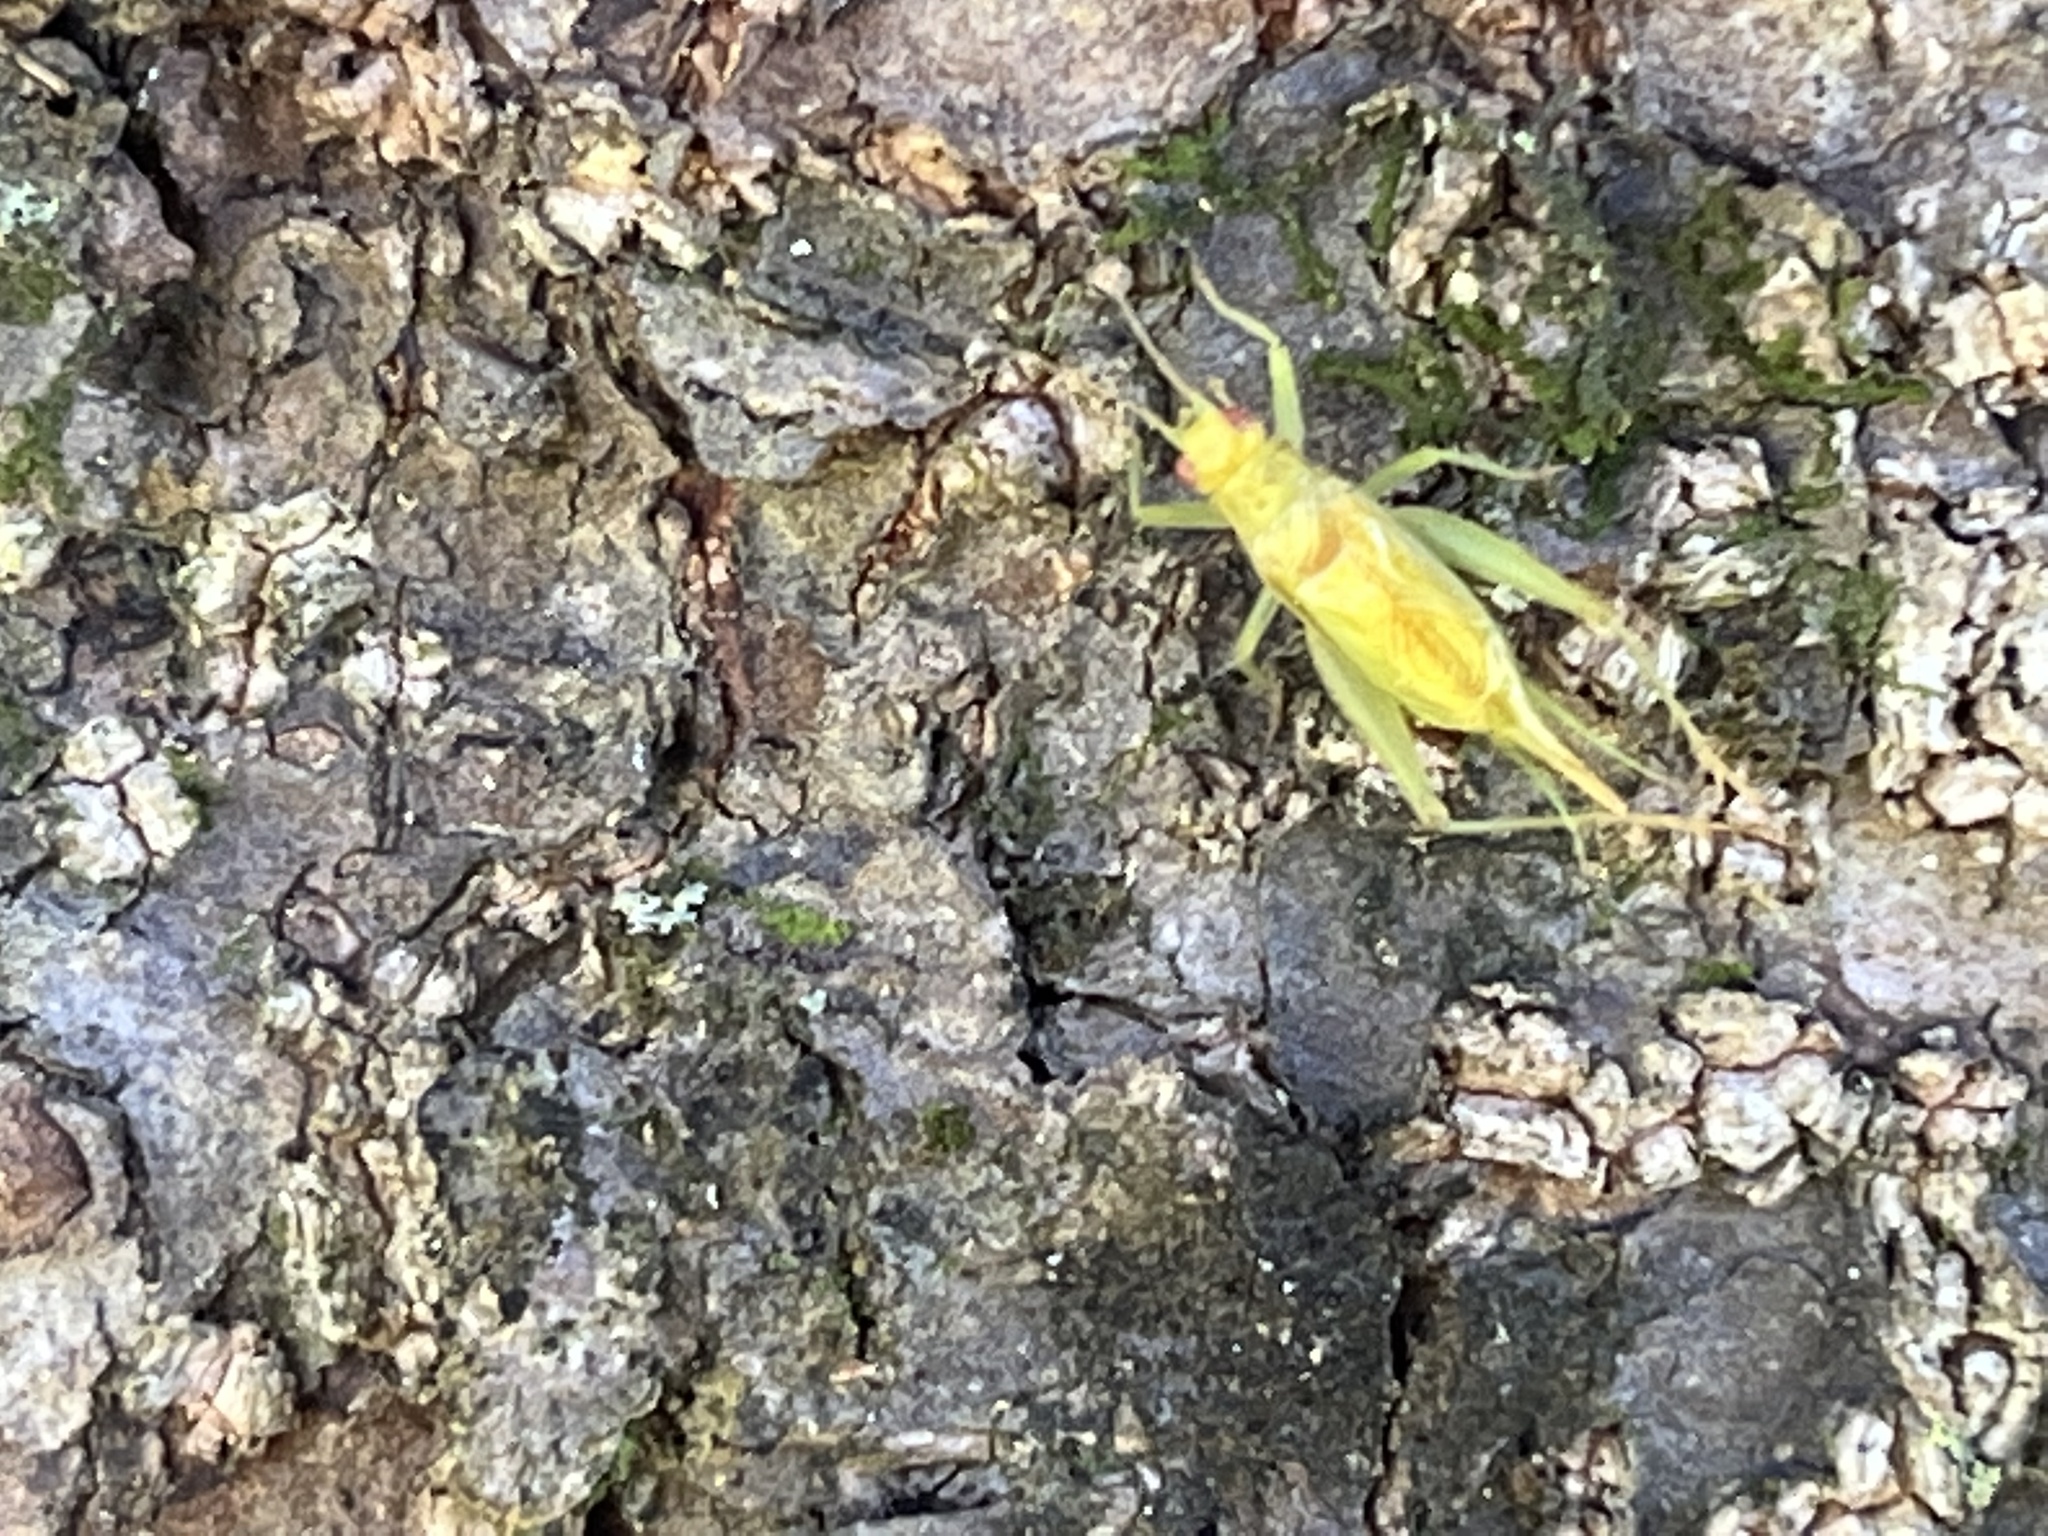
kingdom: Animalia
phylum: Arthropoda
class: Insecta
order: Orthoptera
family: Trigonidiidae
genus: Cyrtoxipha
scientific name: Cyrtoxipha columbiana
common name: Columbian trig
